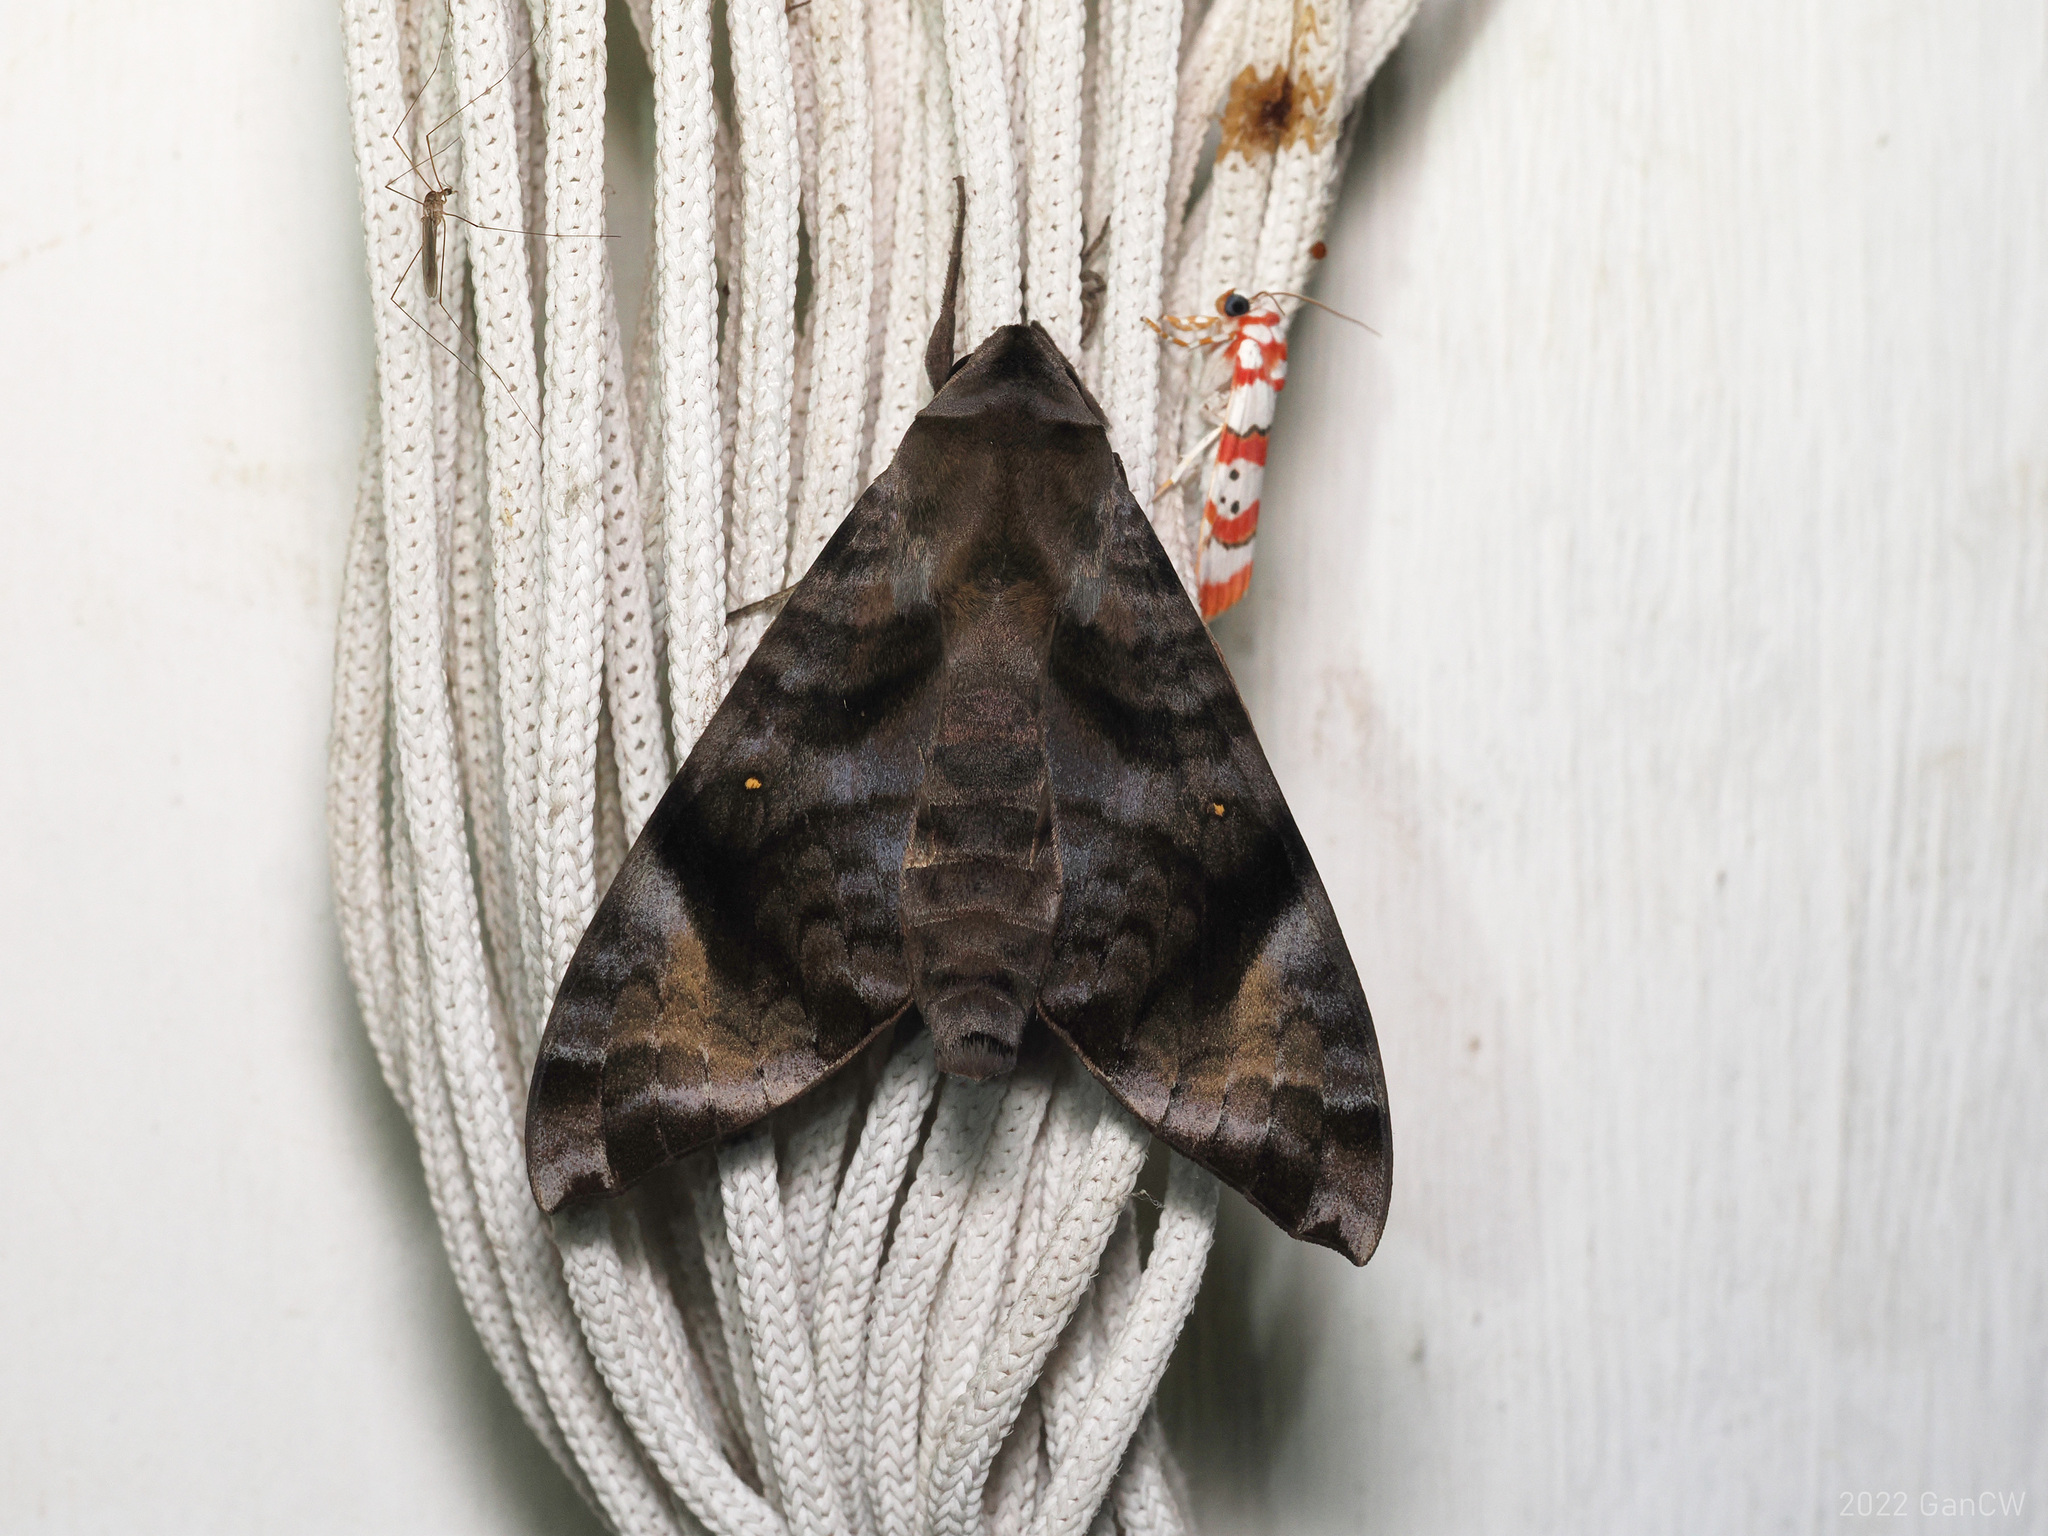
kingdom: Animalia
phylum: Arthropoda
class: Insecta
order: Lepidoptera
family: Sphingidae
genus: Acosmeryx
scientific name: Acosmeryx pseudonaga
